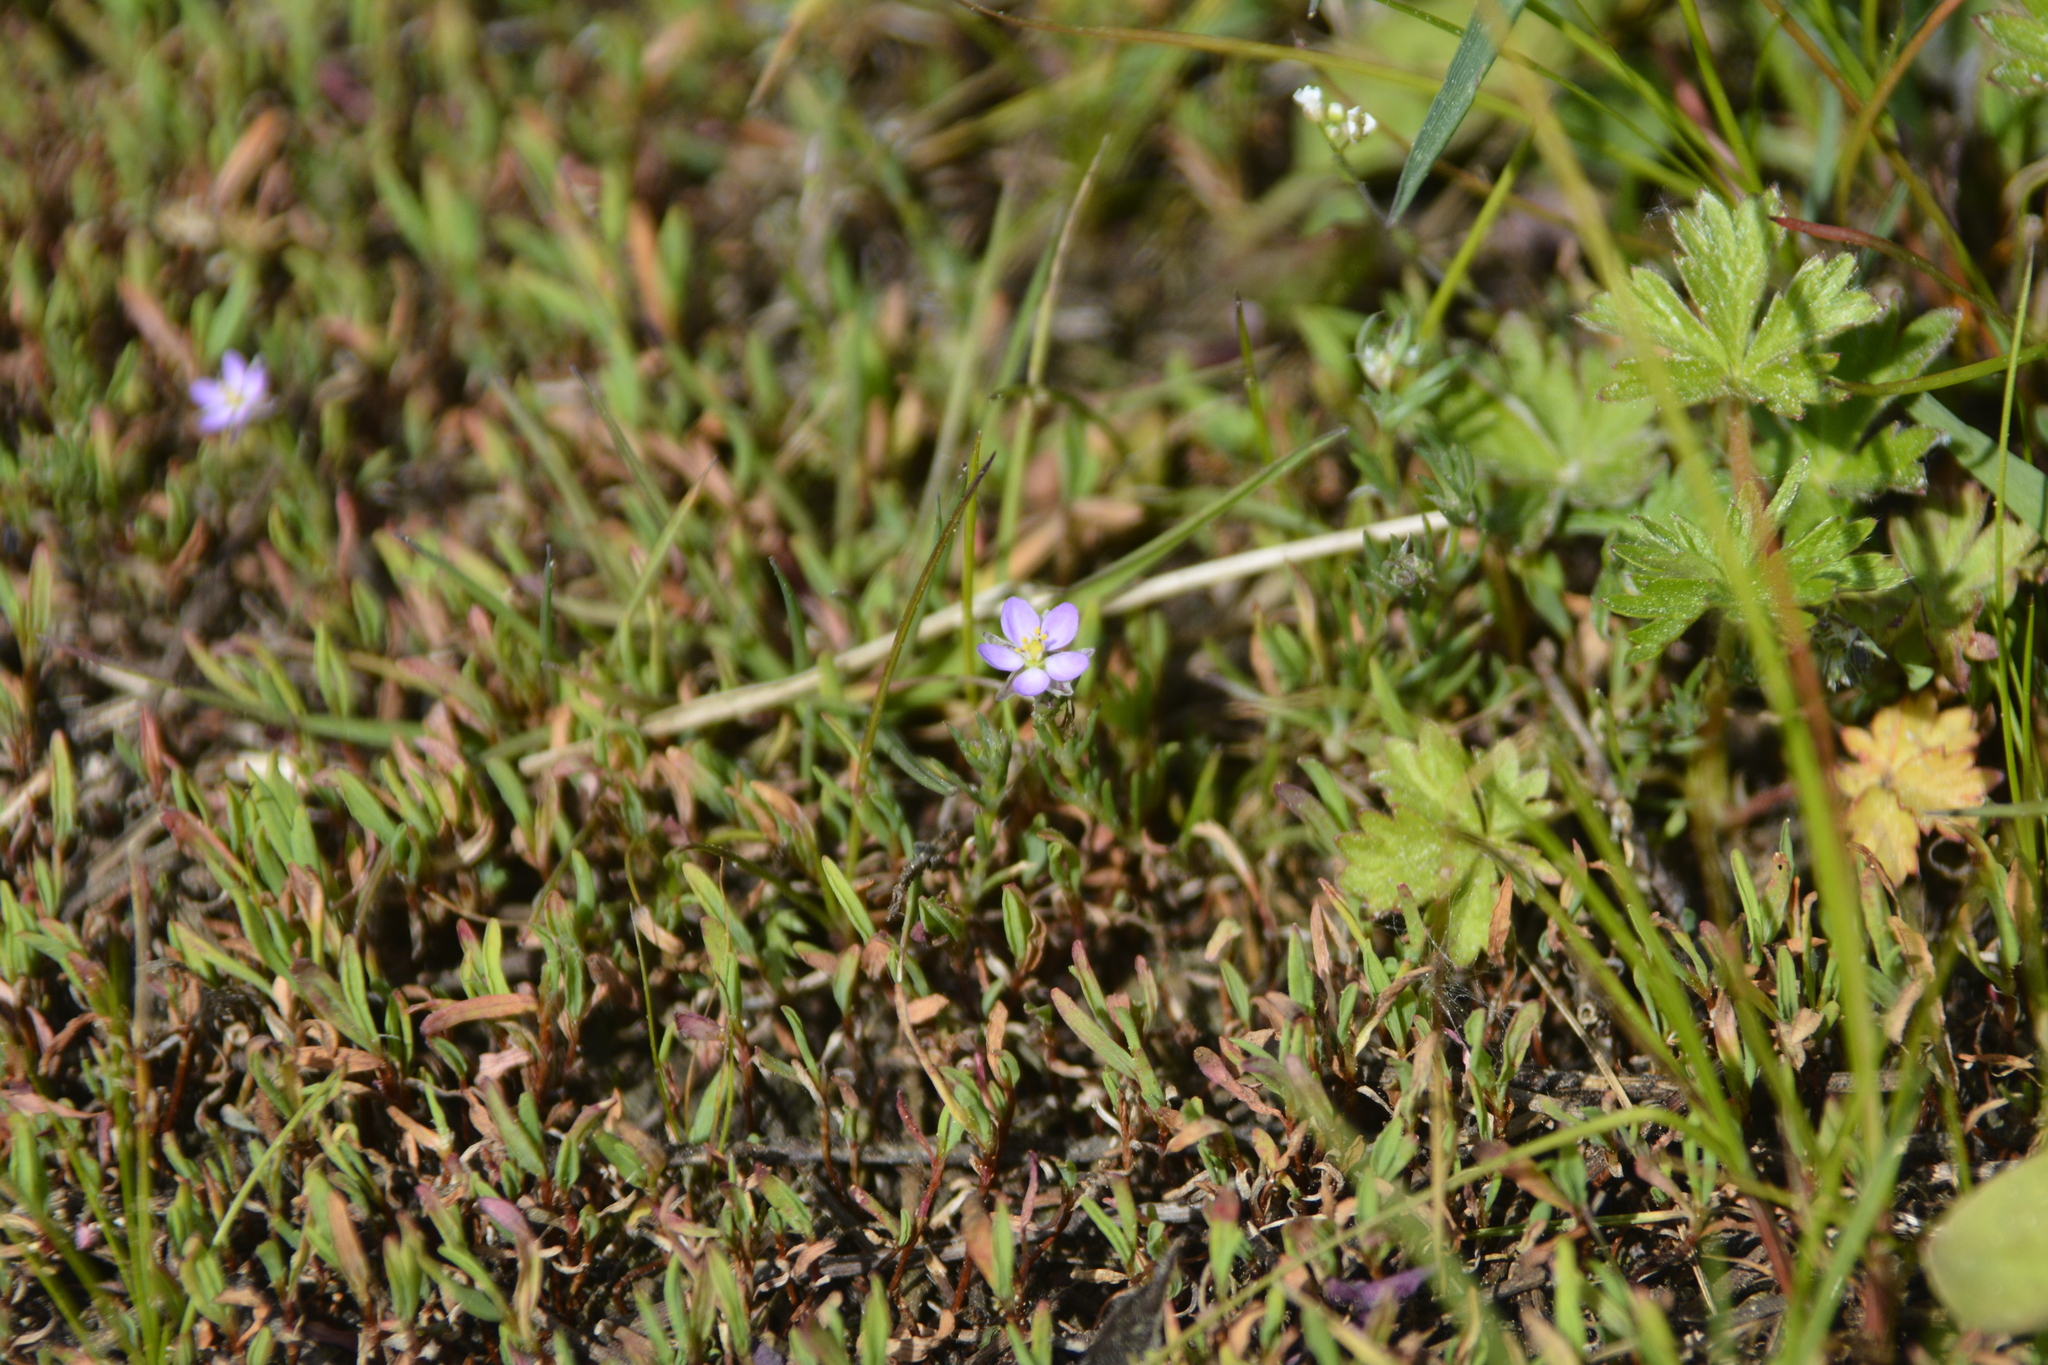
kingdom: Plantae
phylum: Tracheophyta
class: Magnoliopsida
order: Caryophyllales
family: Caryophyllaceae
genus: Spergularia
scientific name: Spergularia rubra
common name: Red sand-spurrey
